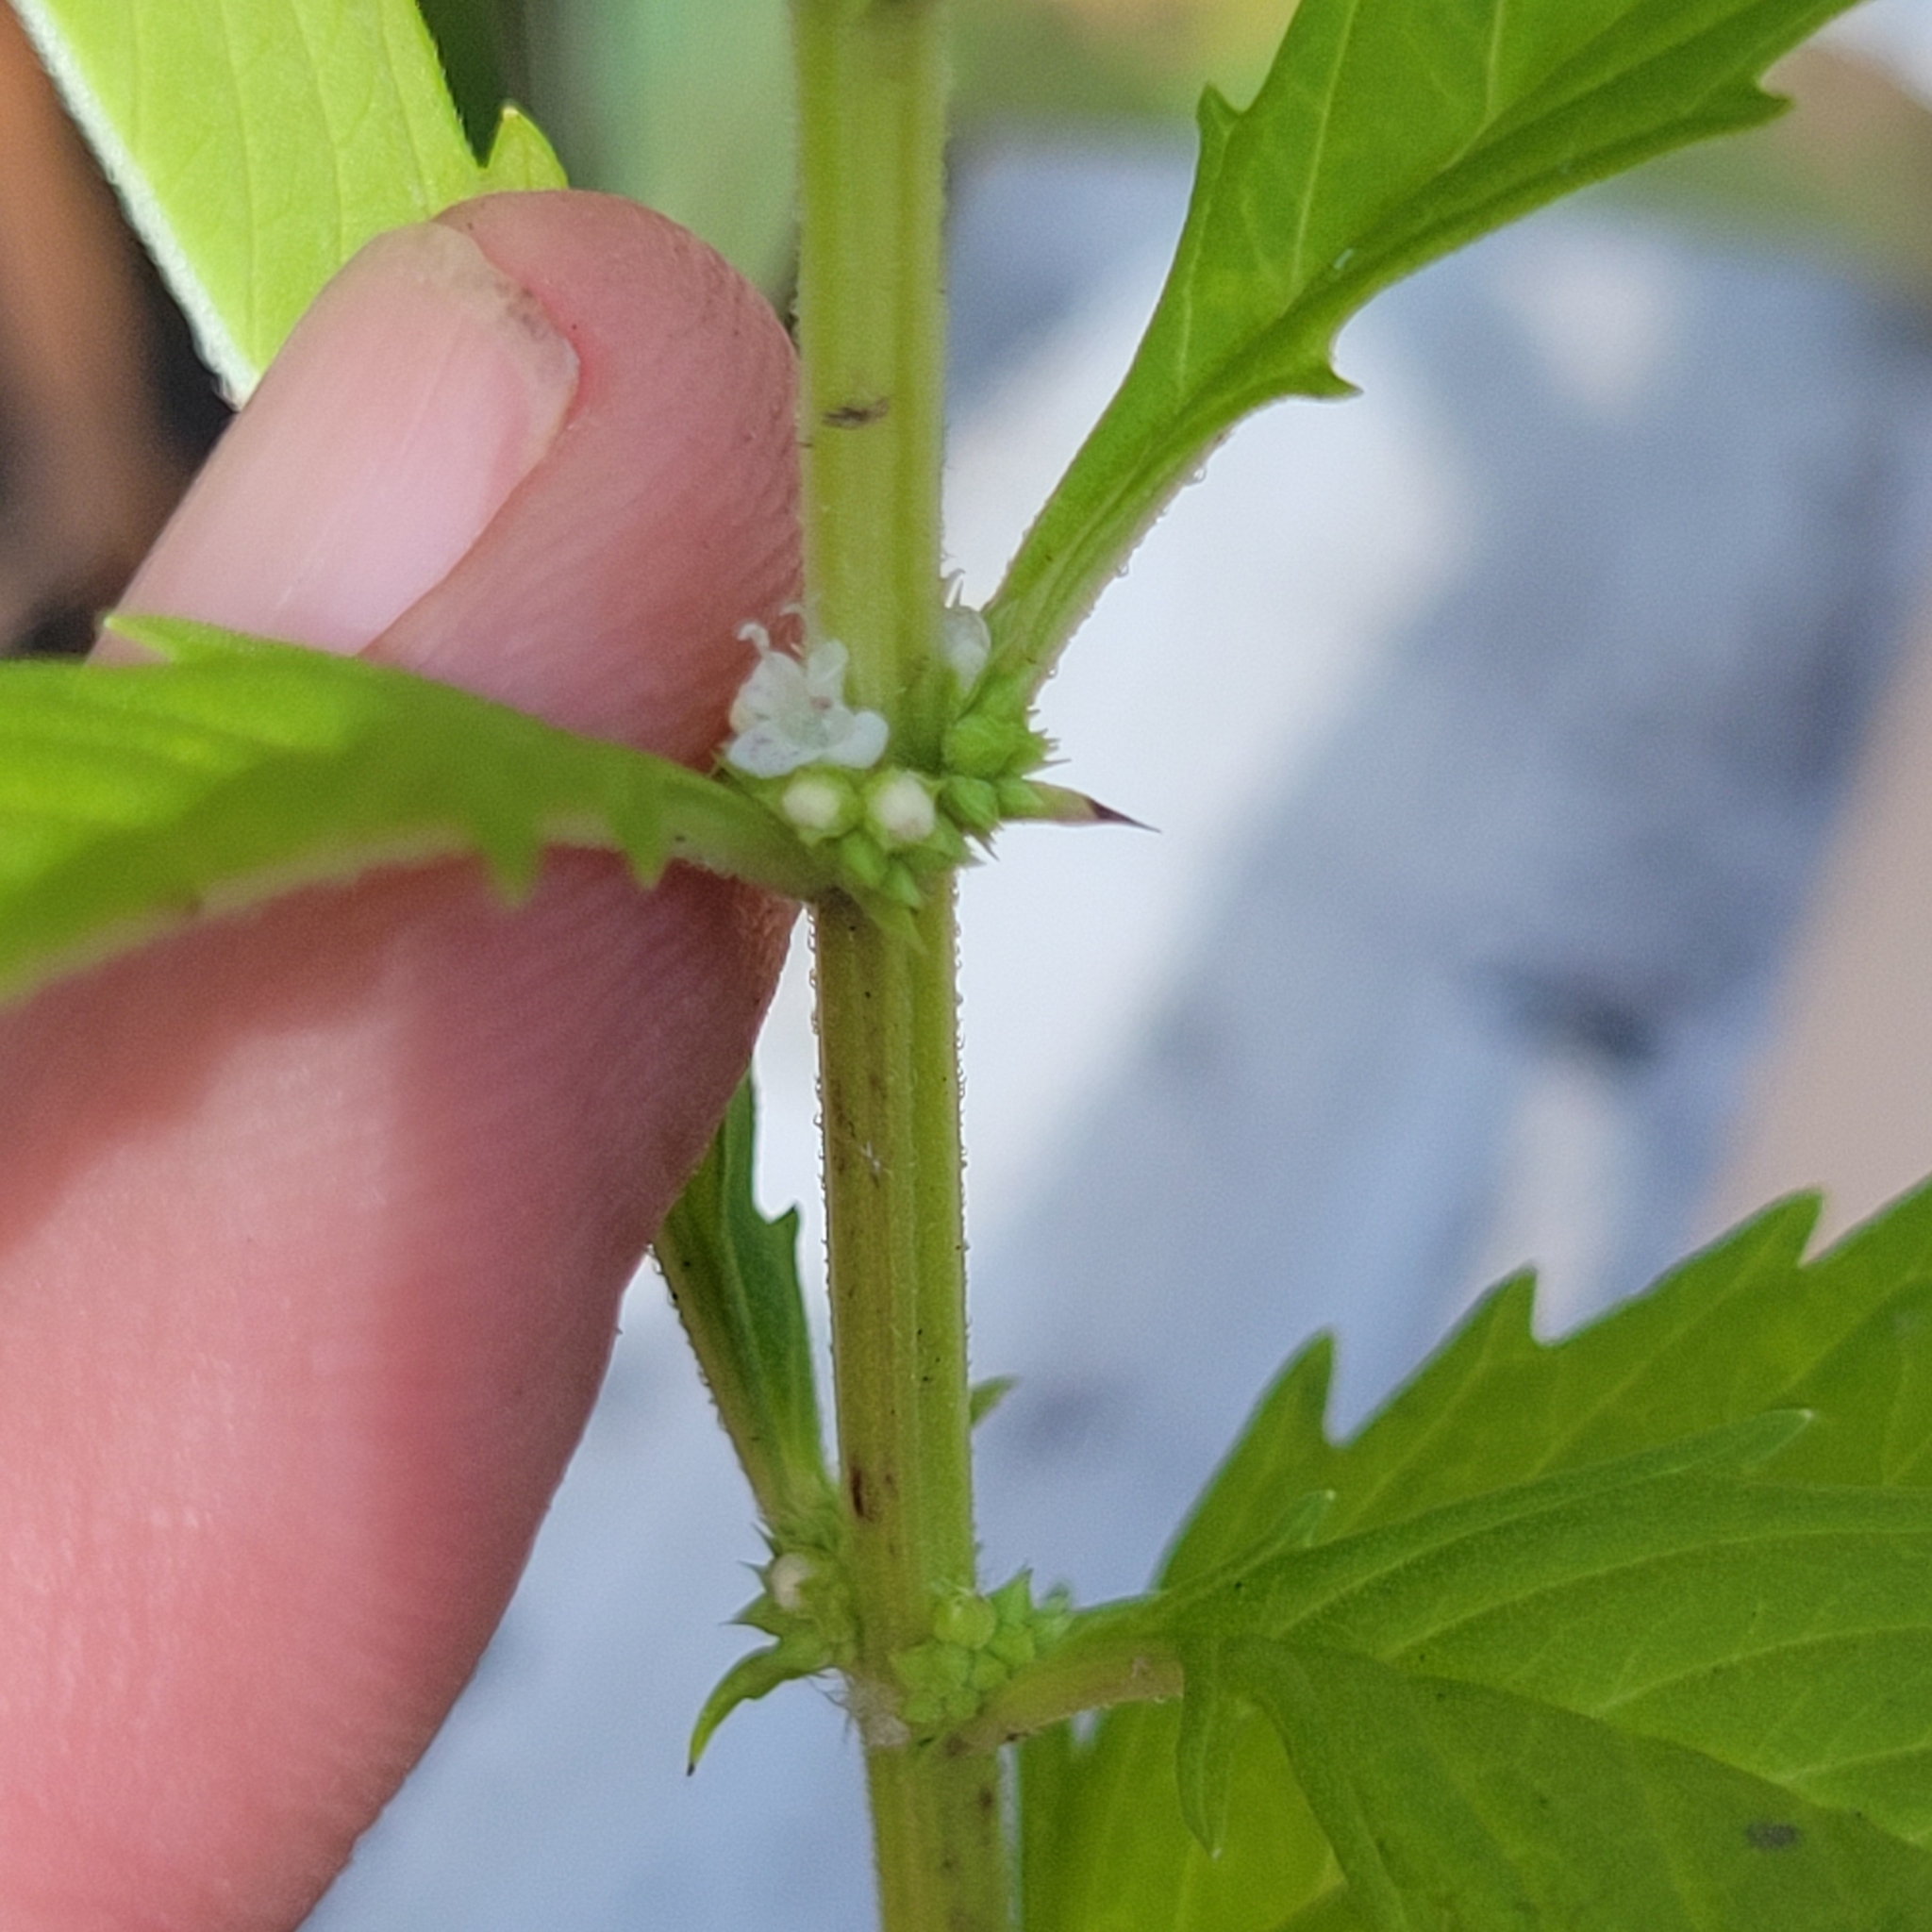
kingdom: Plantae
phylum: Tracheophyta
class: Magnoliopsida
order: Lamiales
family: Lamiaceae
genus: Lycopus
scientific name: Lycopus americanus
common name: American bugleweed
